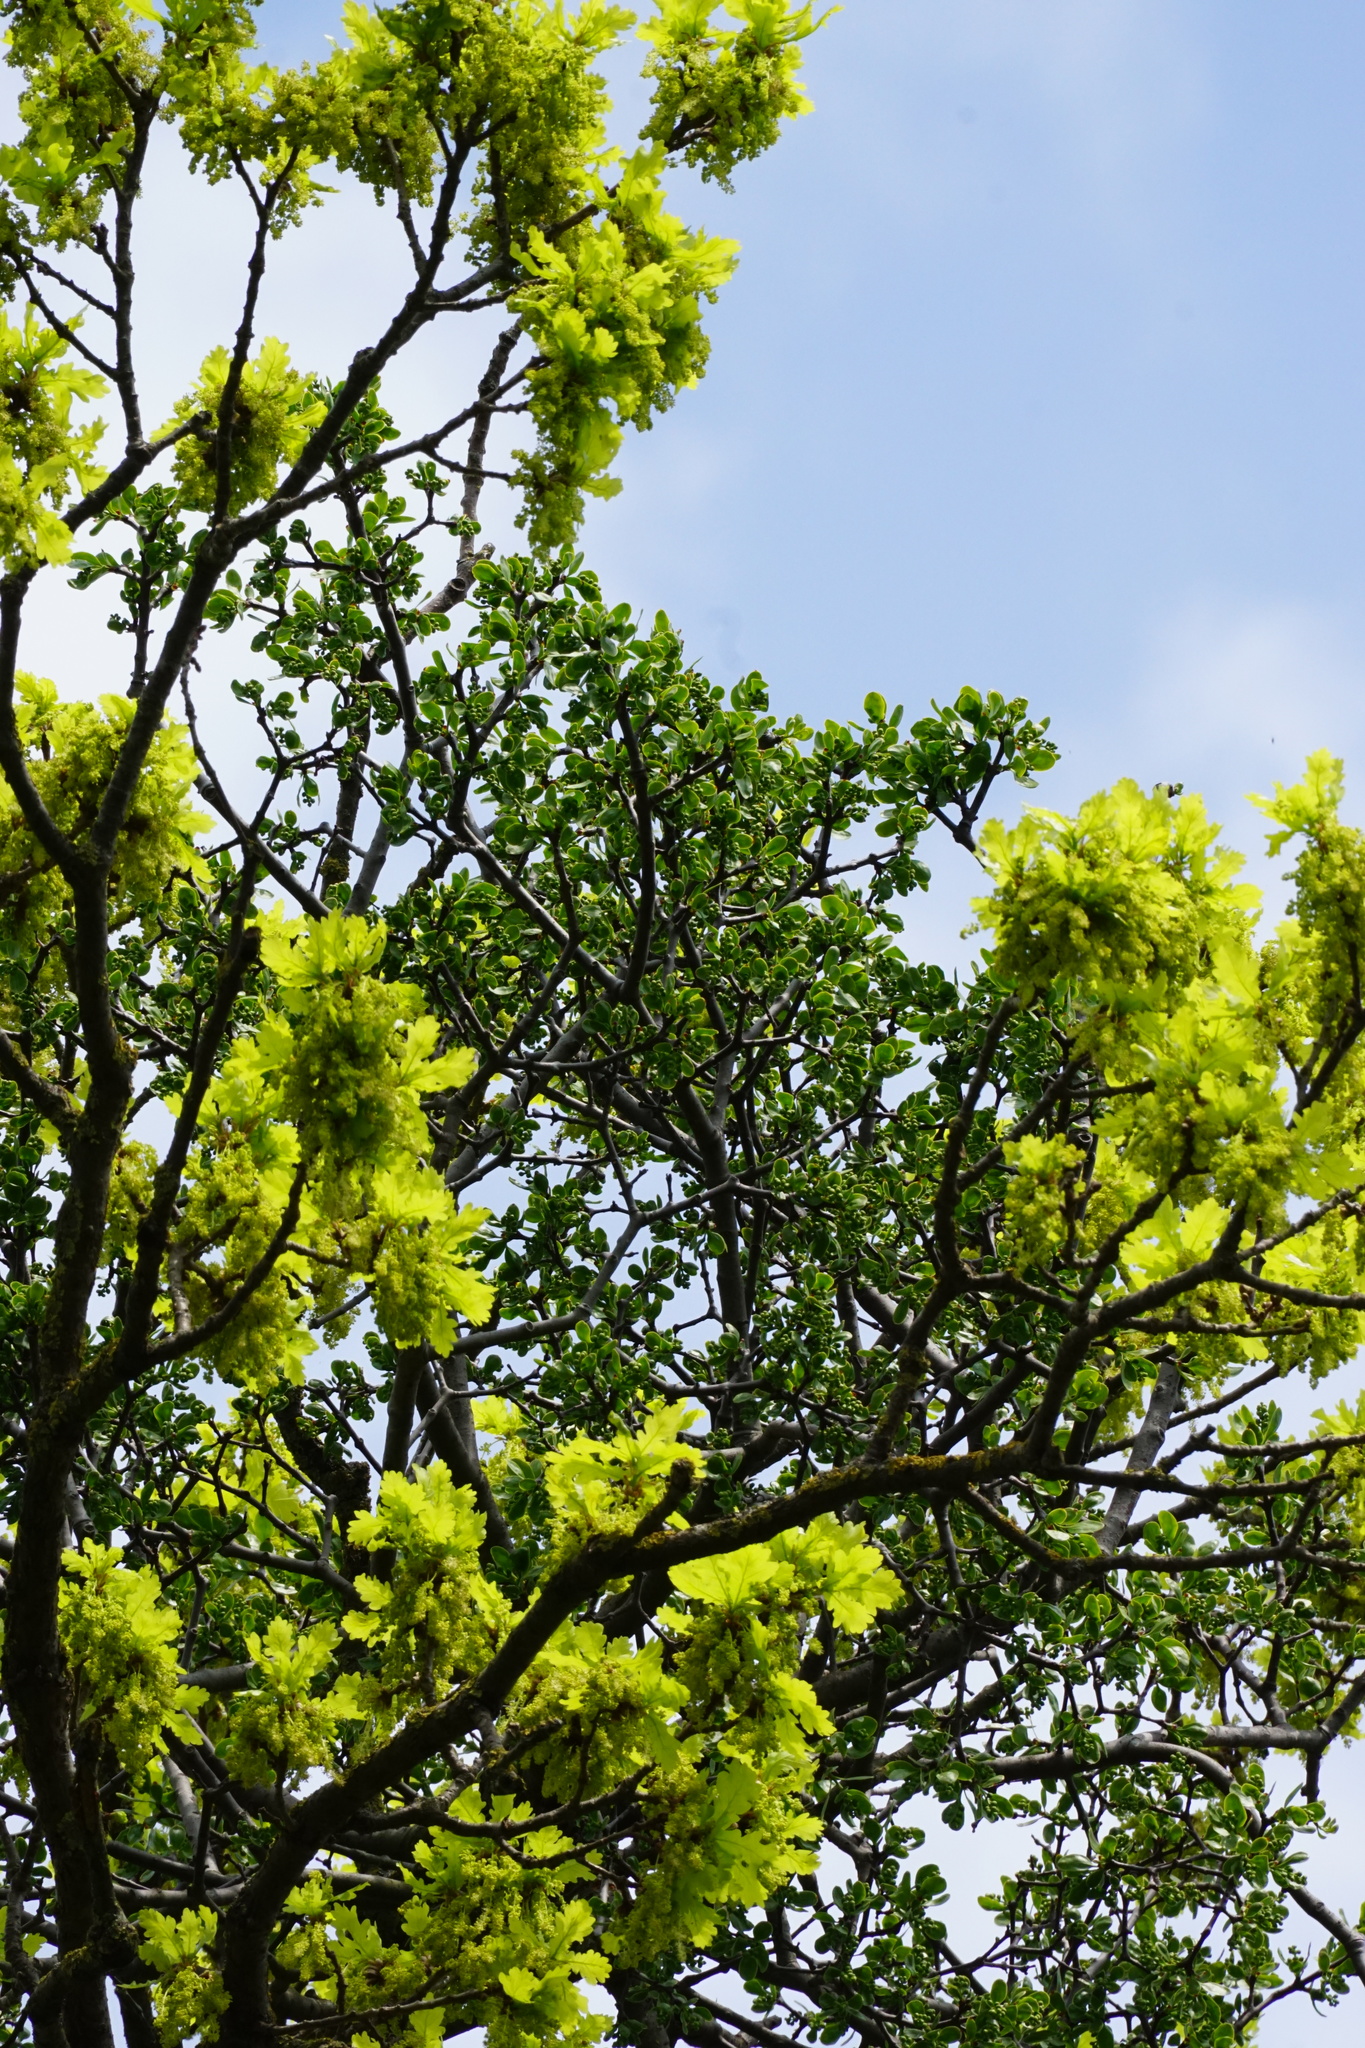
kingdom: Plantae
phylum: Tracheophyta
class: Magnoliopsida
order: Santalales
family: Loranthaceae
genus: Loranthus
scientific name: Loranthus europaeus
